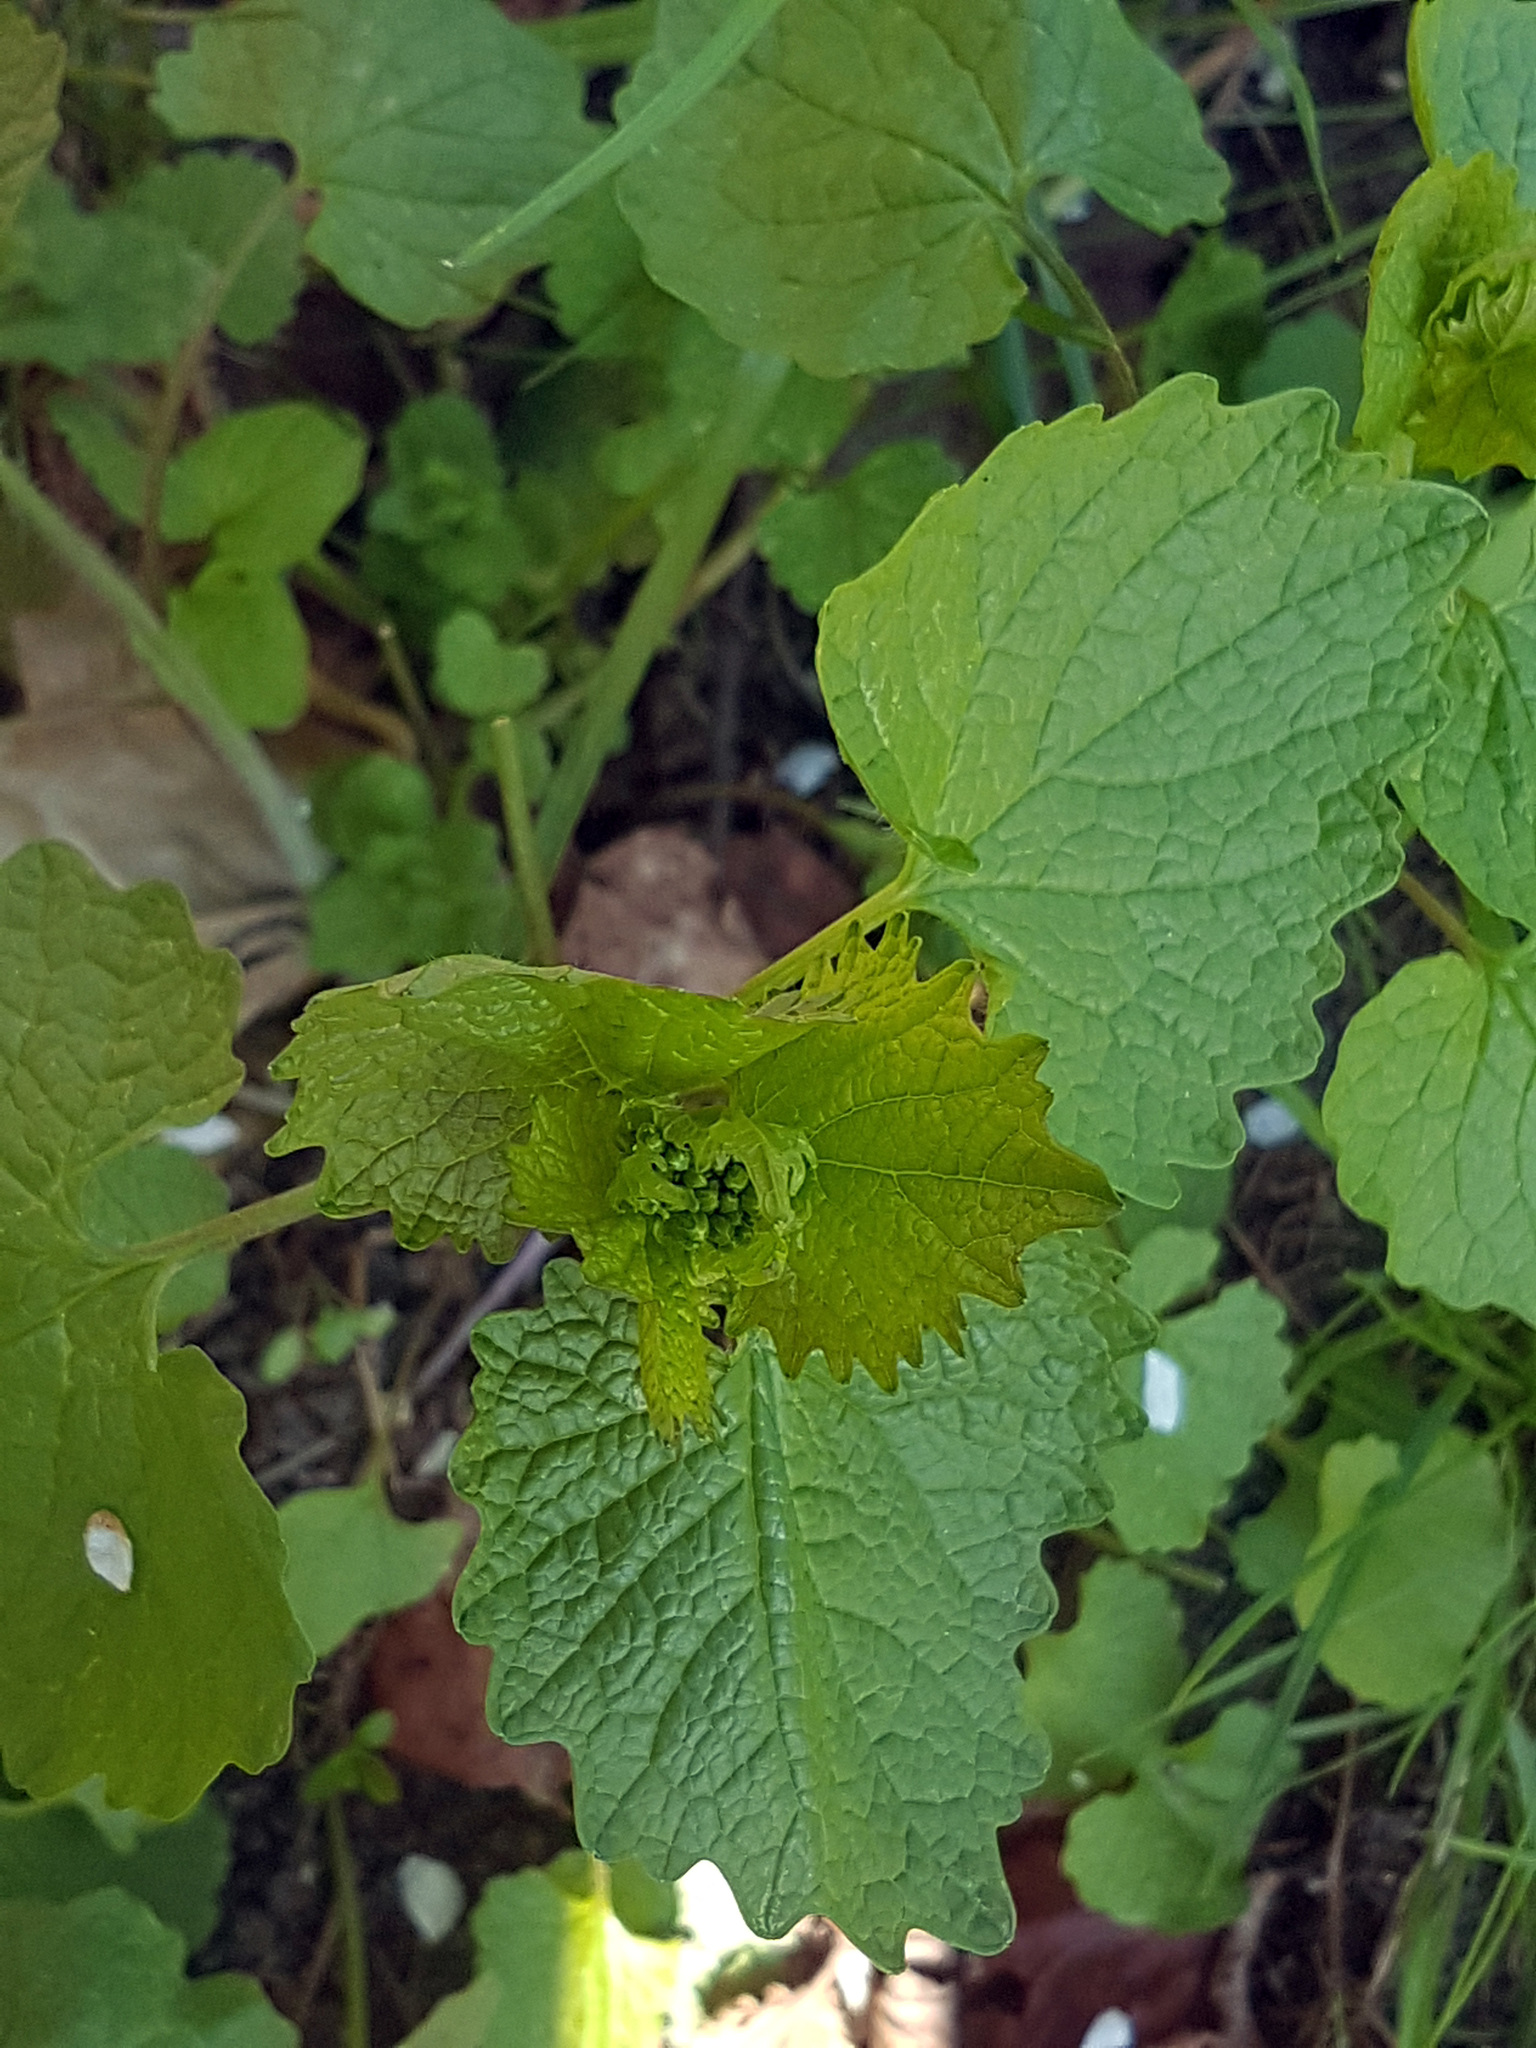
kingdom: Plantae
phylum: Tracheophyta
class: Magnoliopsida
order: Brassicales
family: Brassicaceae
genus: Alliaria
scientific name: Alliaria petiolata
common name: Garlic mustard
